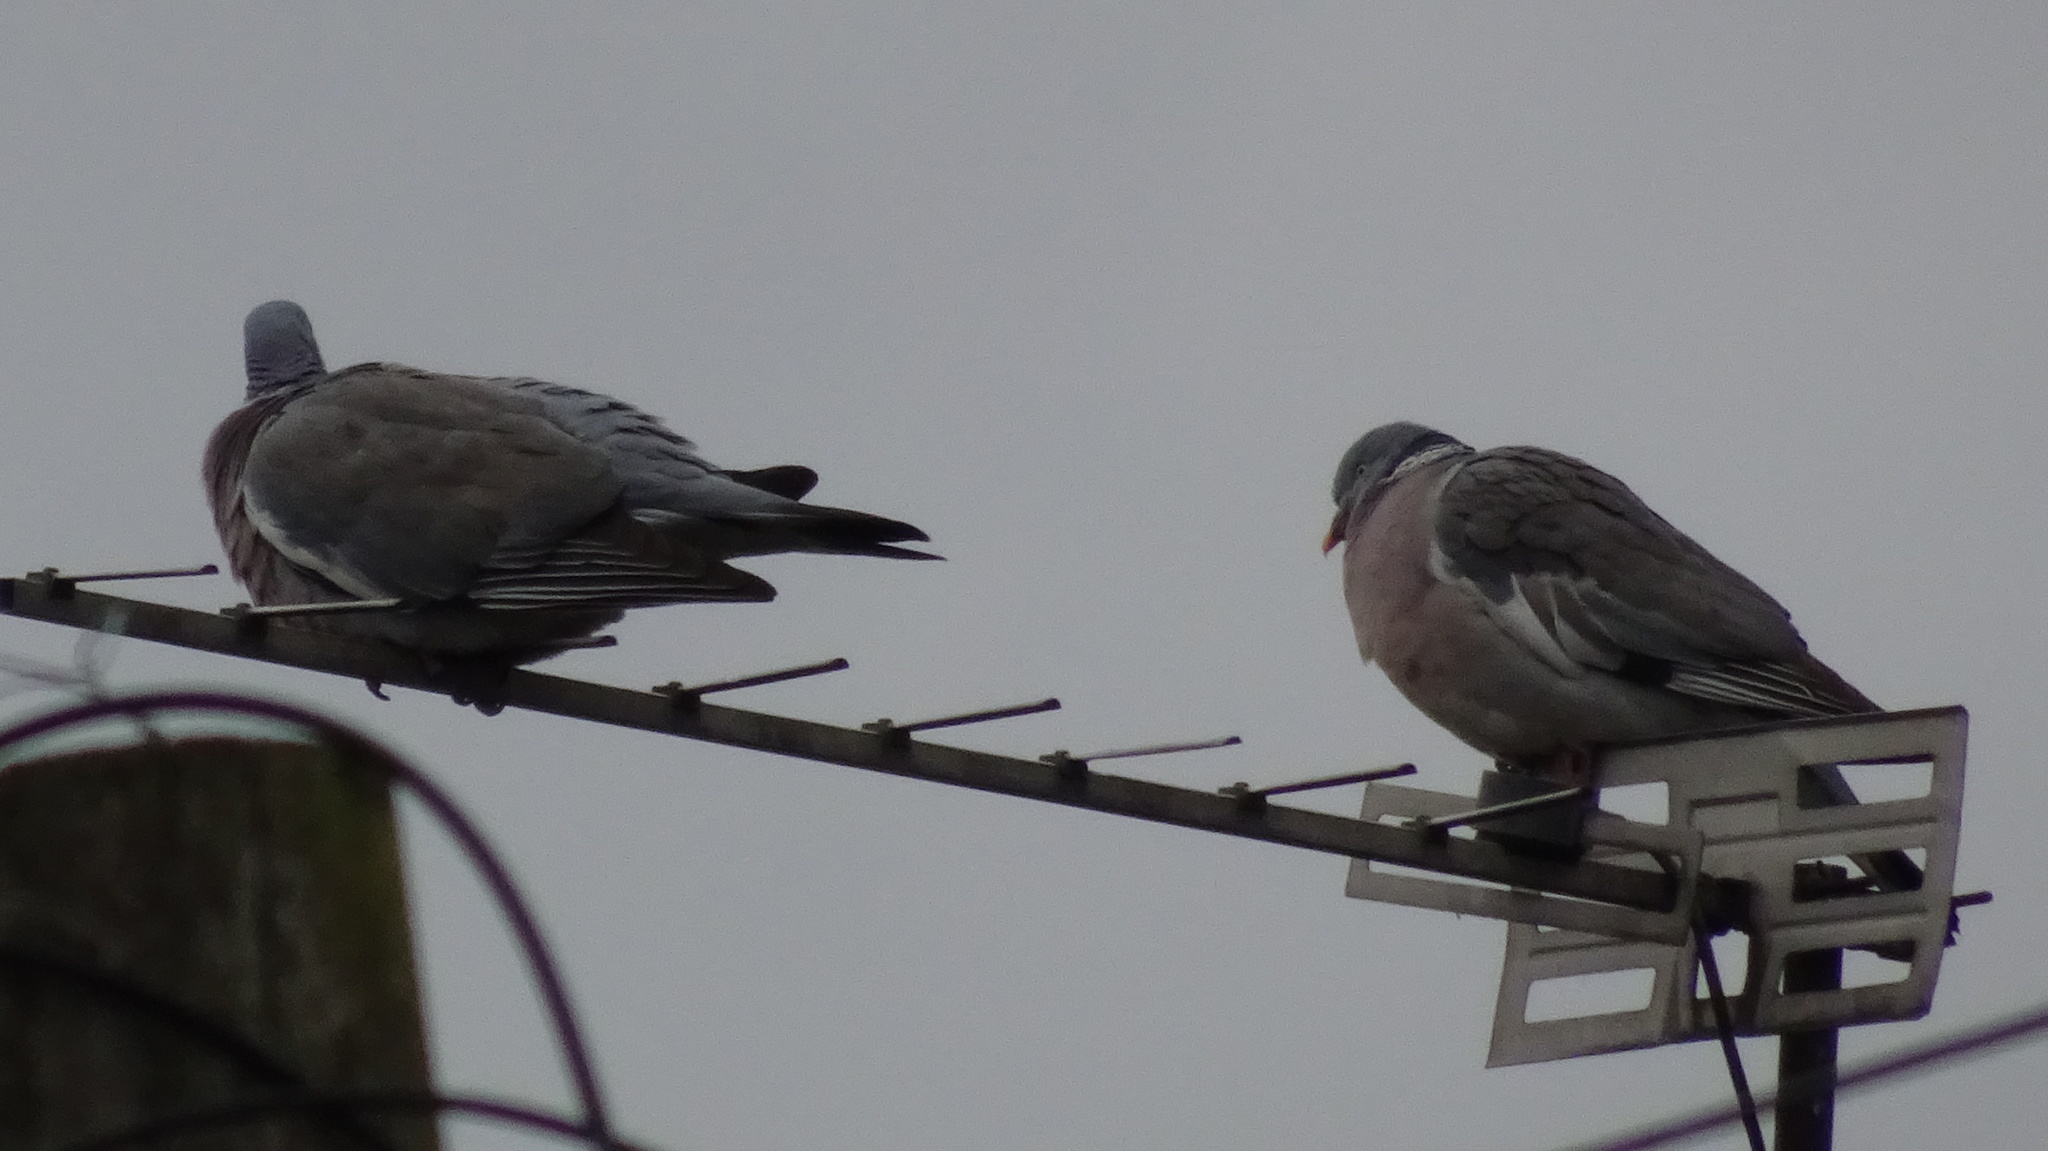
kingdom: Animalia
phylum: Chordata
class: Aves
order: Columbiformes
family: Columbidae
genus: Columba
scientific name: Columba livia
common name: Rock pigeon
